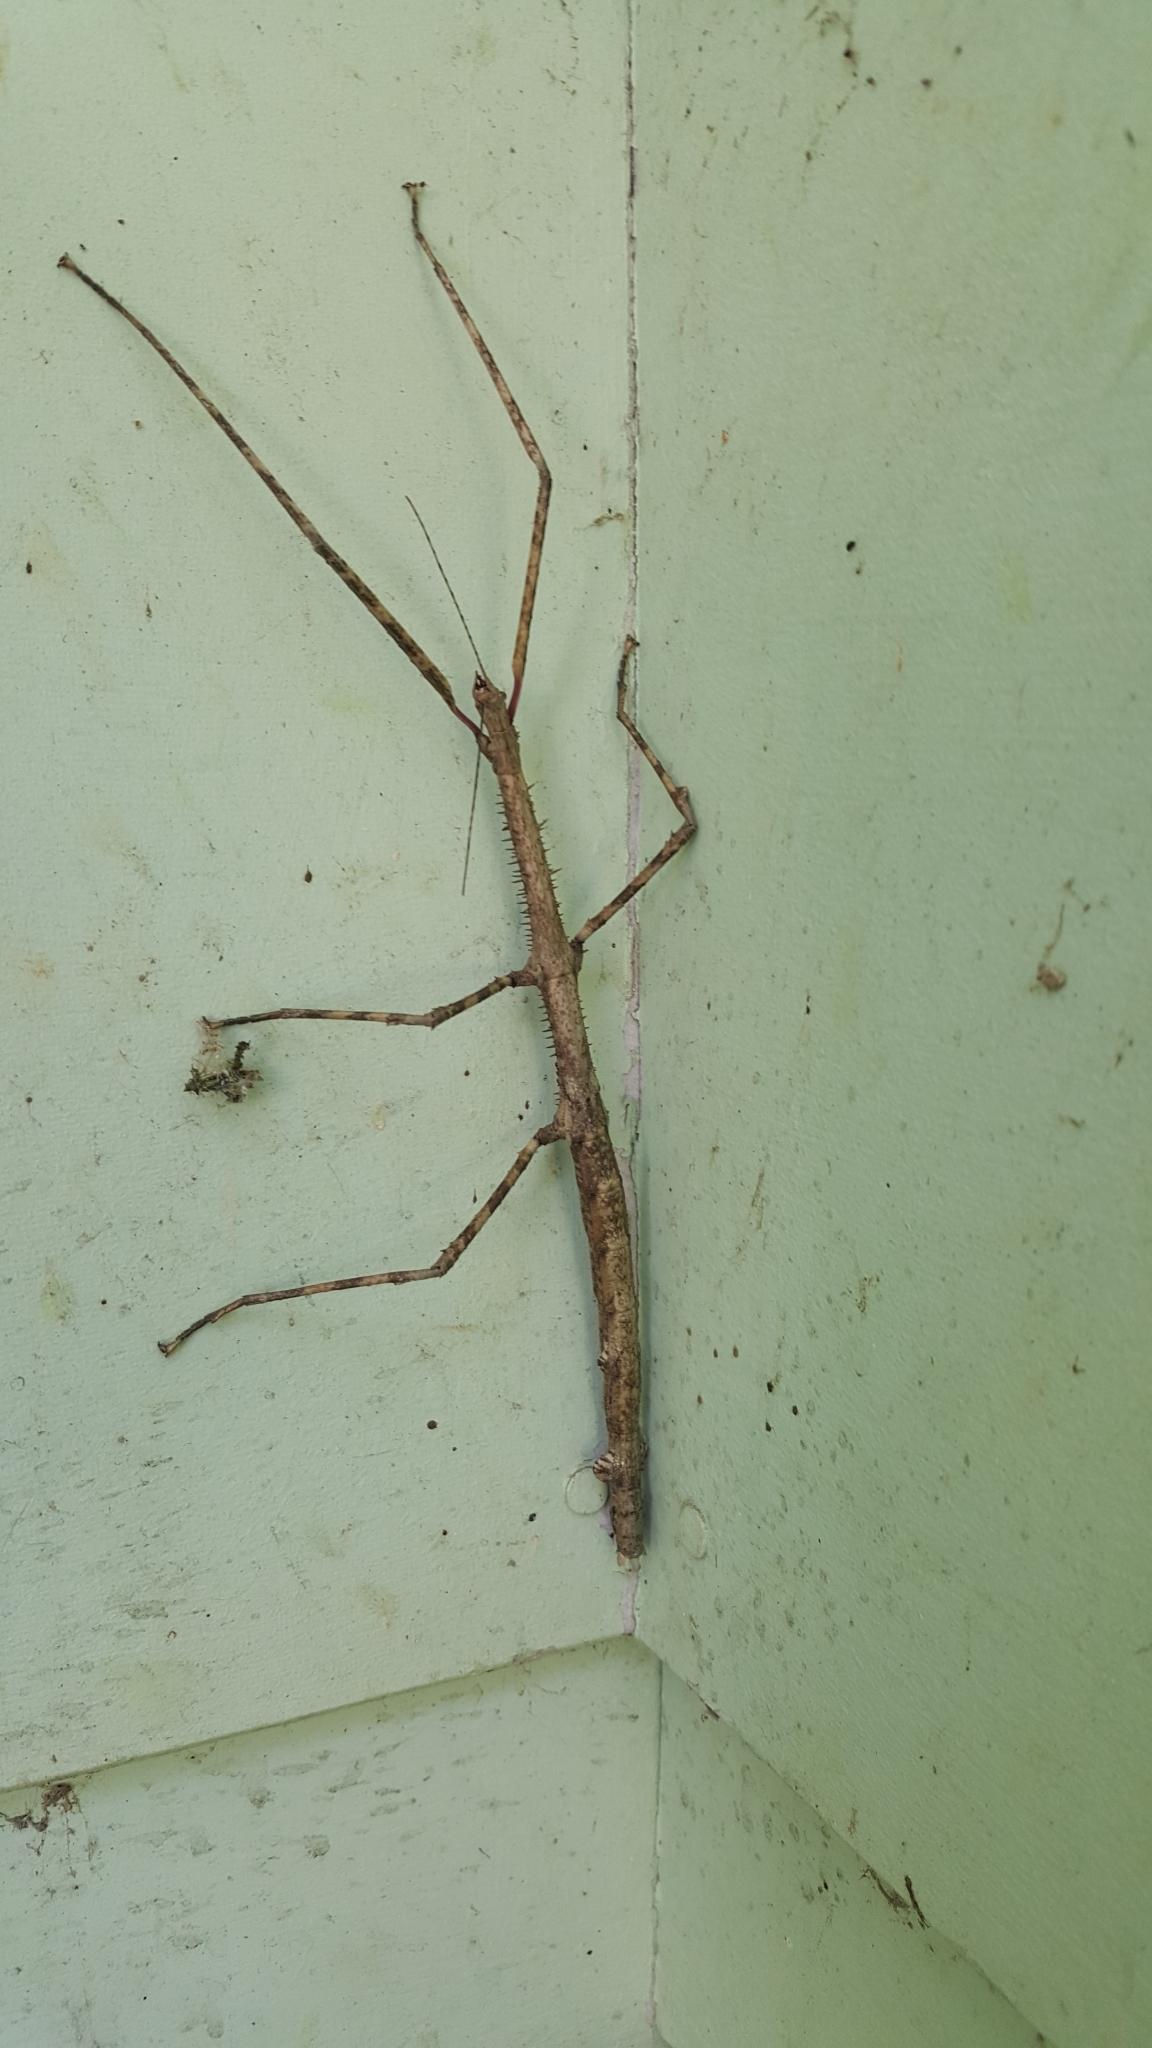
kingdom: Animalia
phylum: Arthropoda
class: Insecta
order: Phasmida
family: Phasmatidae
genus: Argosarchus
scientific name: Argosarchus horridus
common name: Bristly stick insect
